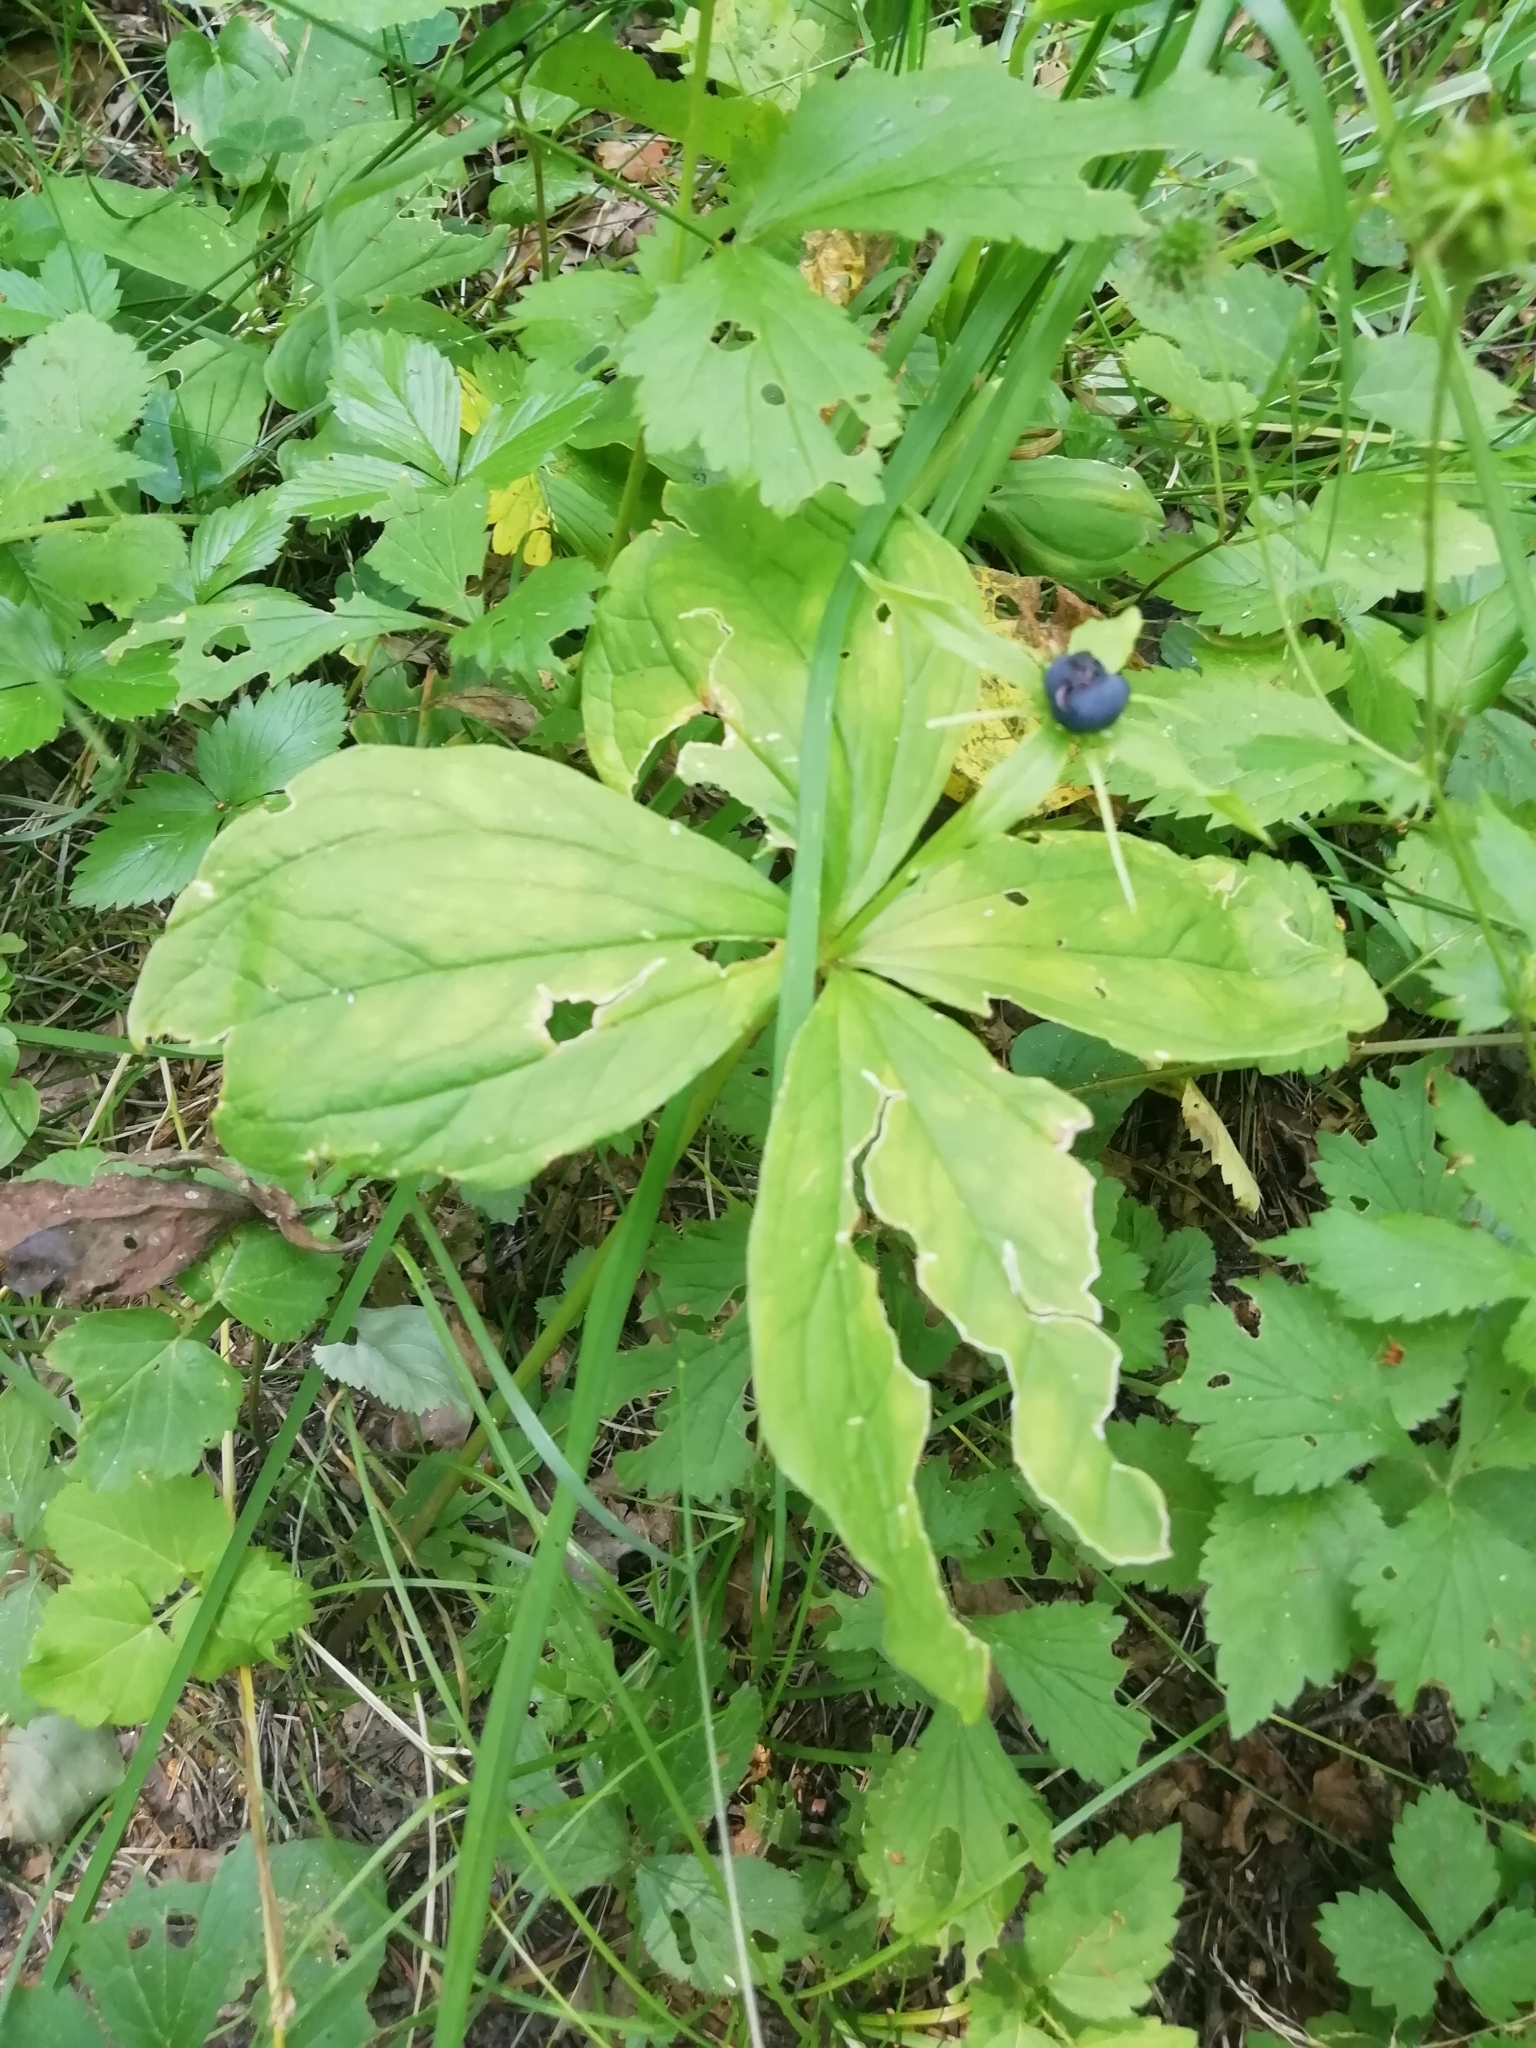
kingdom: Plantae
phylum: Tracheophyta
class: Liliopsida
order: Liliales
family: Melanthiaceae
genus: Paris
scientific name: Paris quadrifolia
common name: Herb-paris
